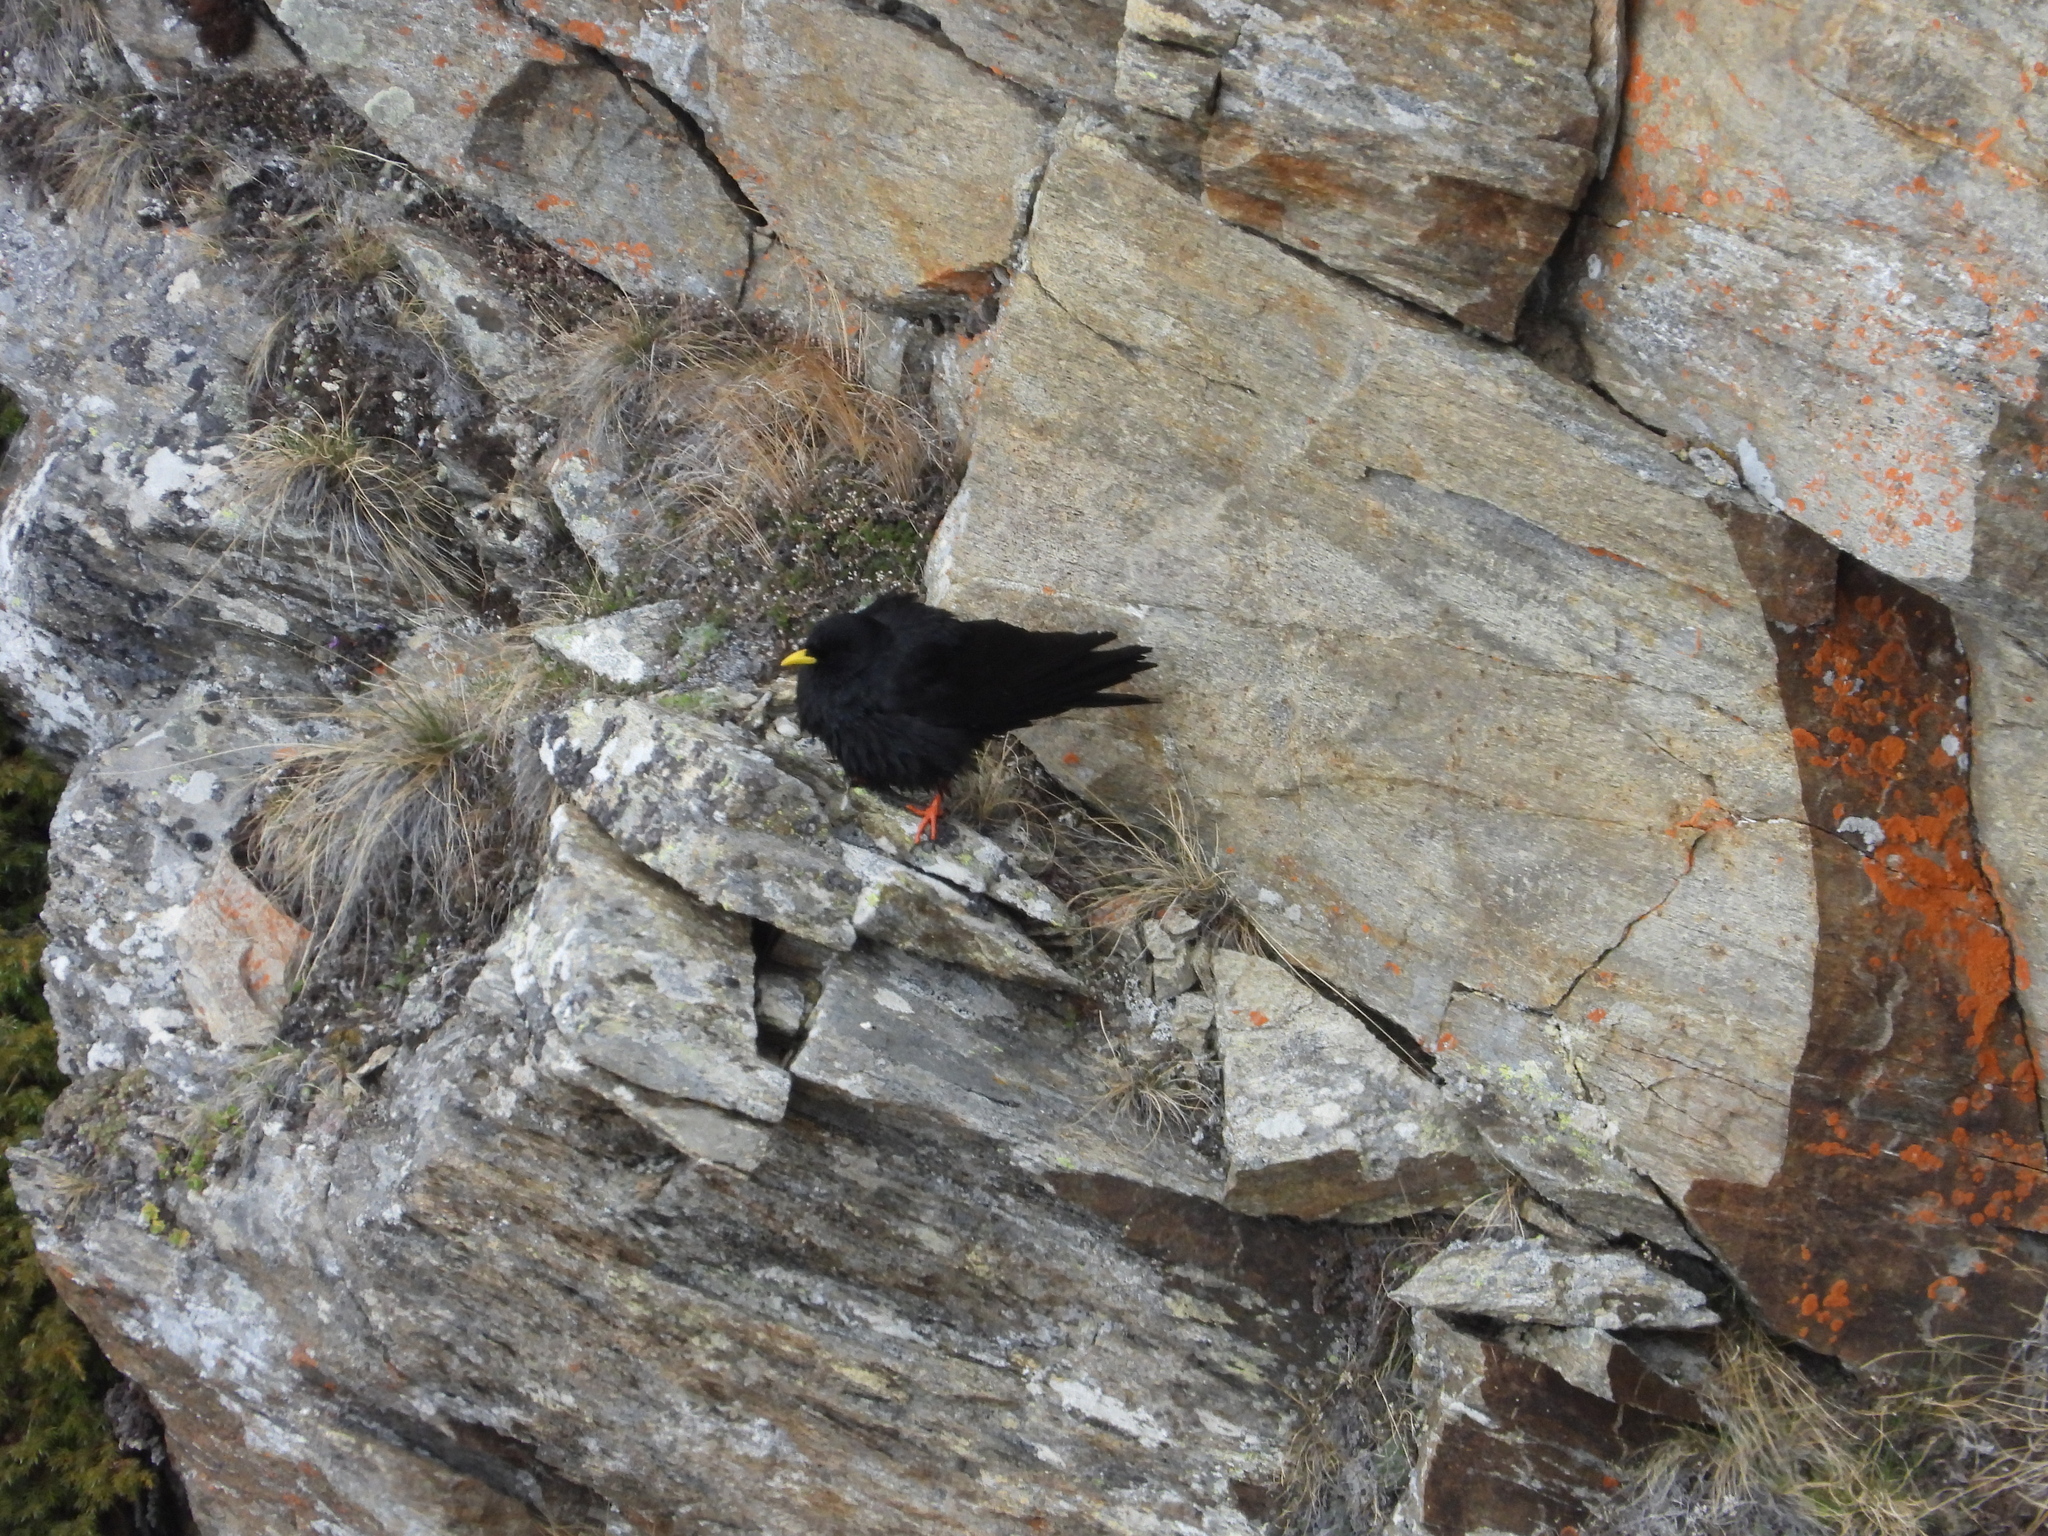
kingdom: Animalia
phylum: Chordata
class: Aves
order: Passeriformes
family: Corvidae
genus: Pyrrhocorax
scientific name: Pyrrhocorax graculus
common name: Alpine chough
